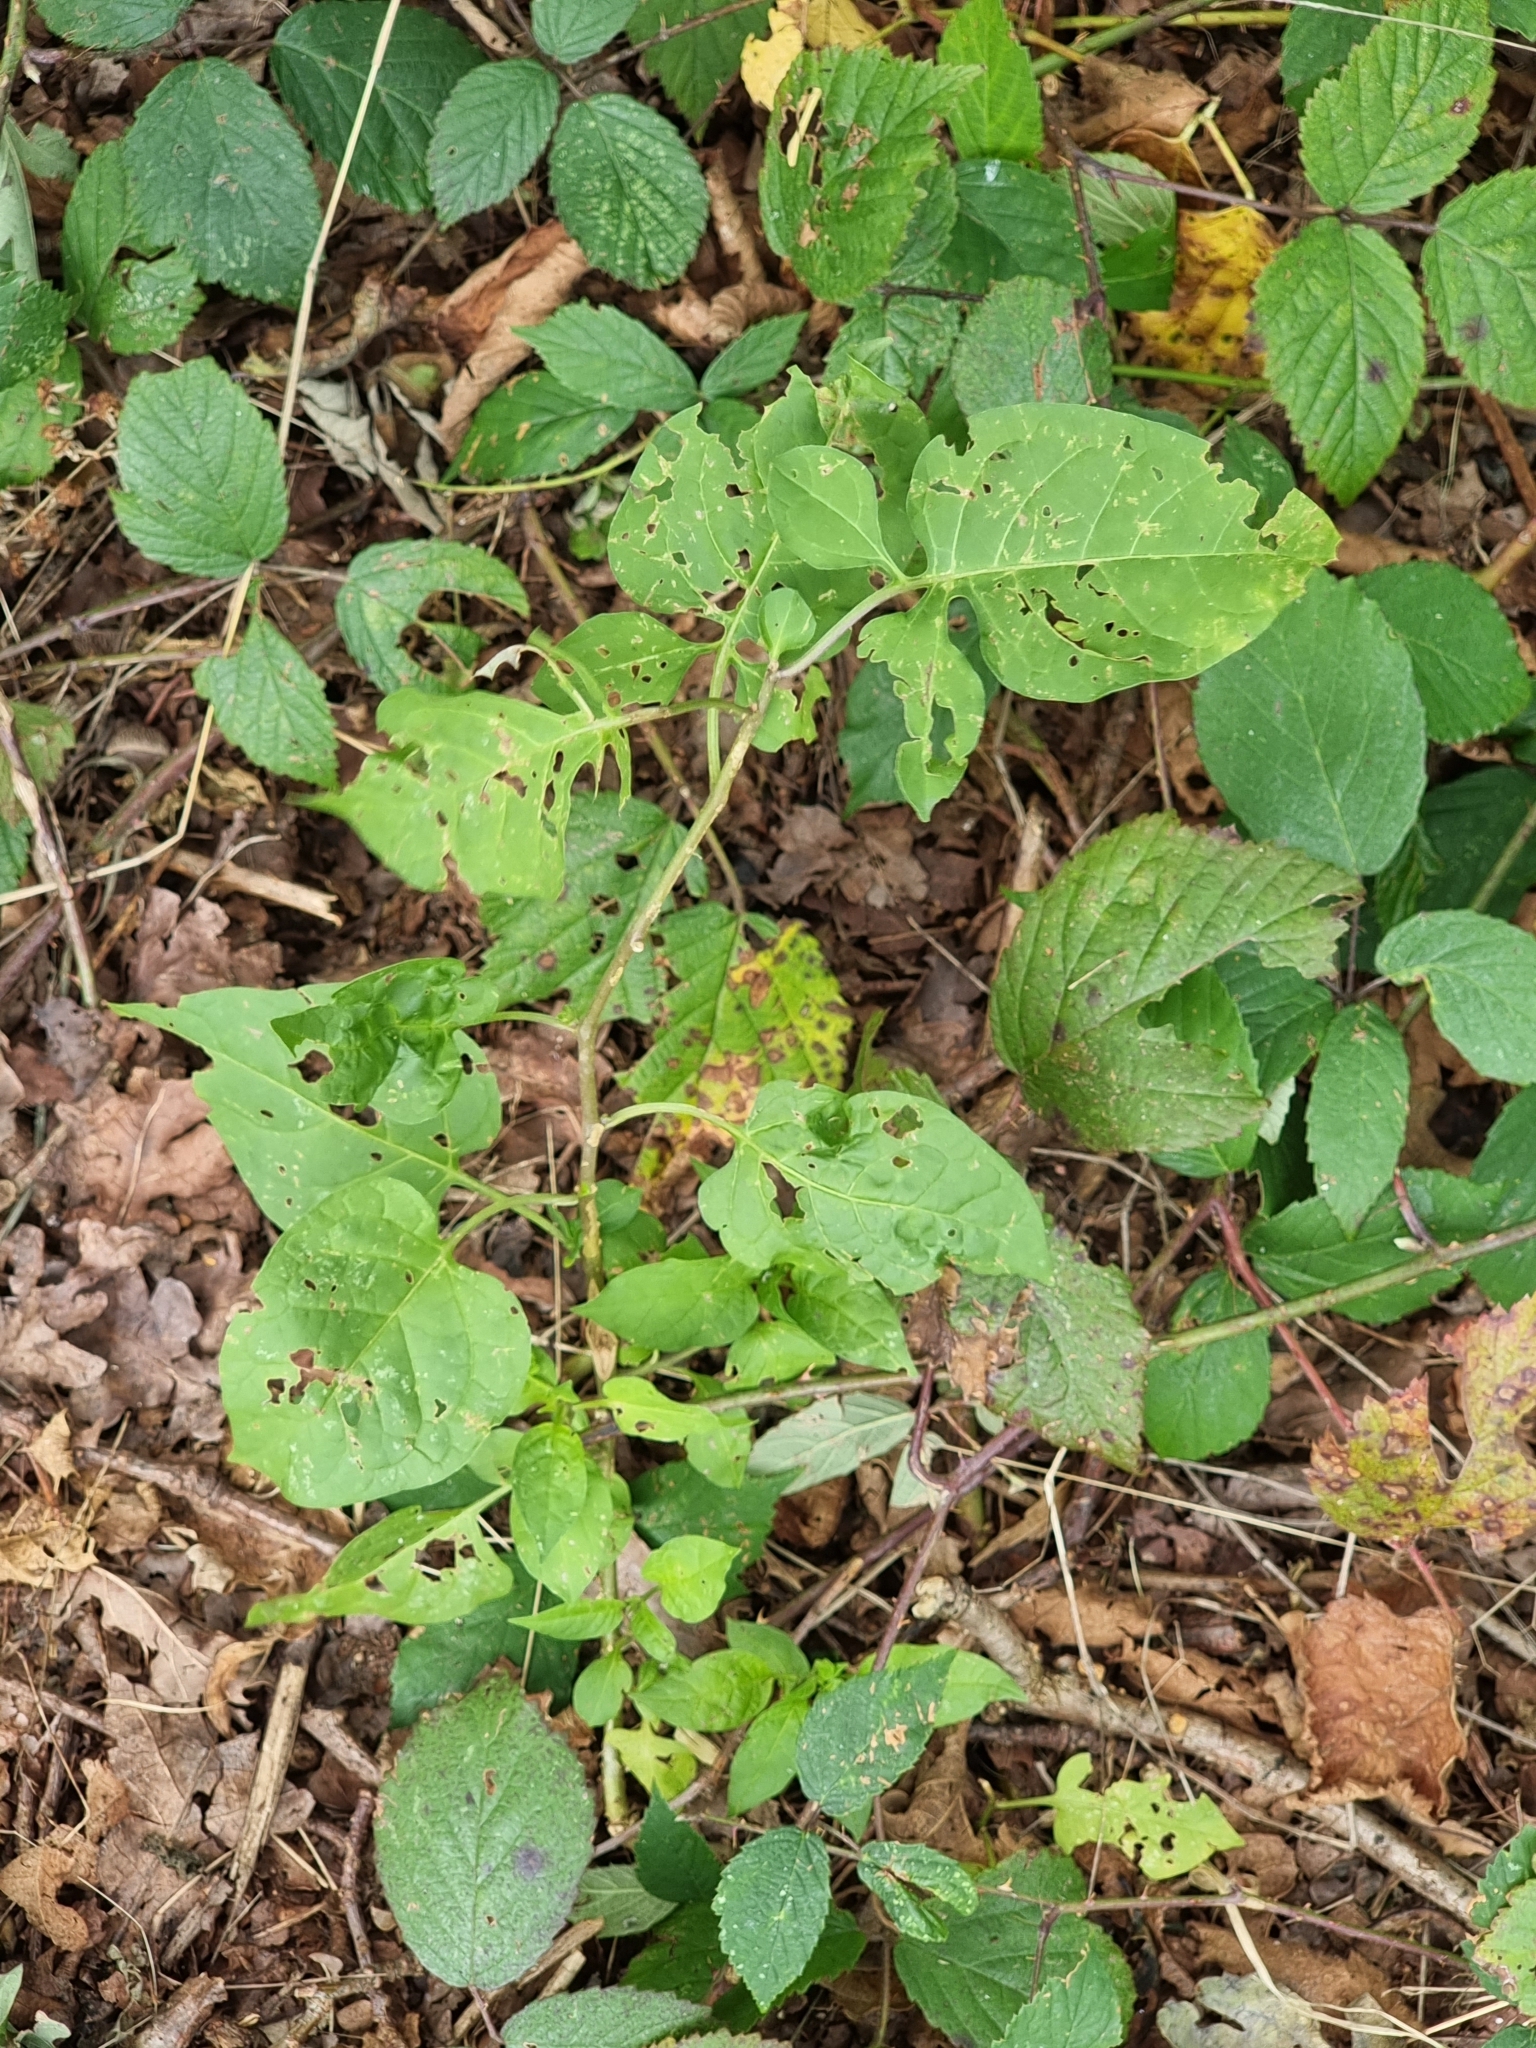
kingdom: Plantae
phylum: Tracheophyta
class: Magnoliopsida
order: Solanales
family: Solanaceae
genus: Solanum
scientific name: Solanum dulcamara
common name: Climbing nightshade
